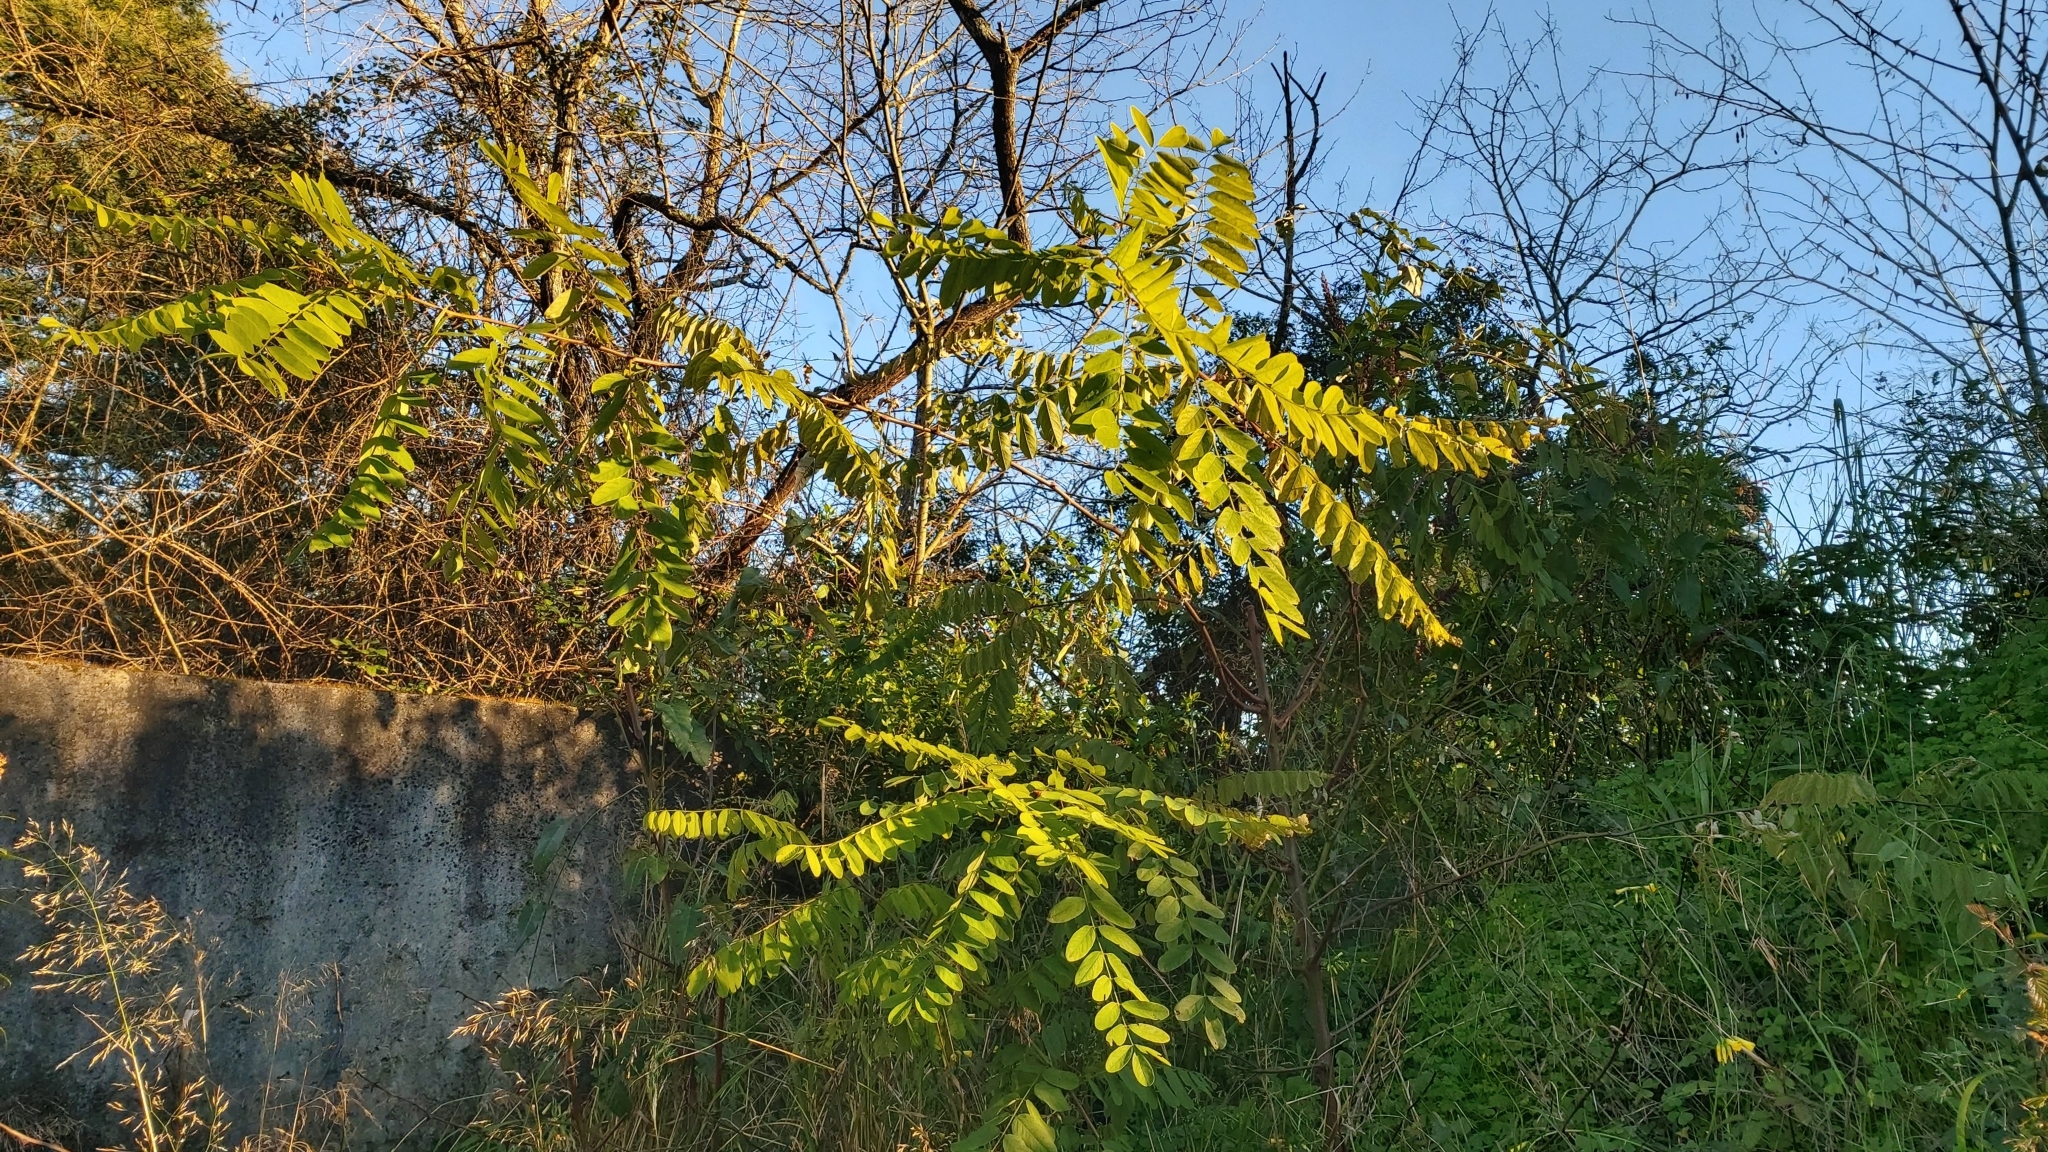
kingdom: Plantae
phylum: Tracheophyta
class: Magnoliopsida
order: Fabales
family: Fabaceae
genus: Robinia
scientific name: Robinia pseudoacacia
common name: Black locust
